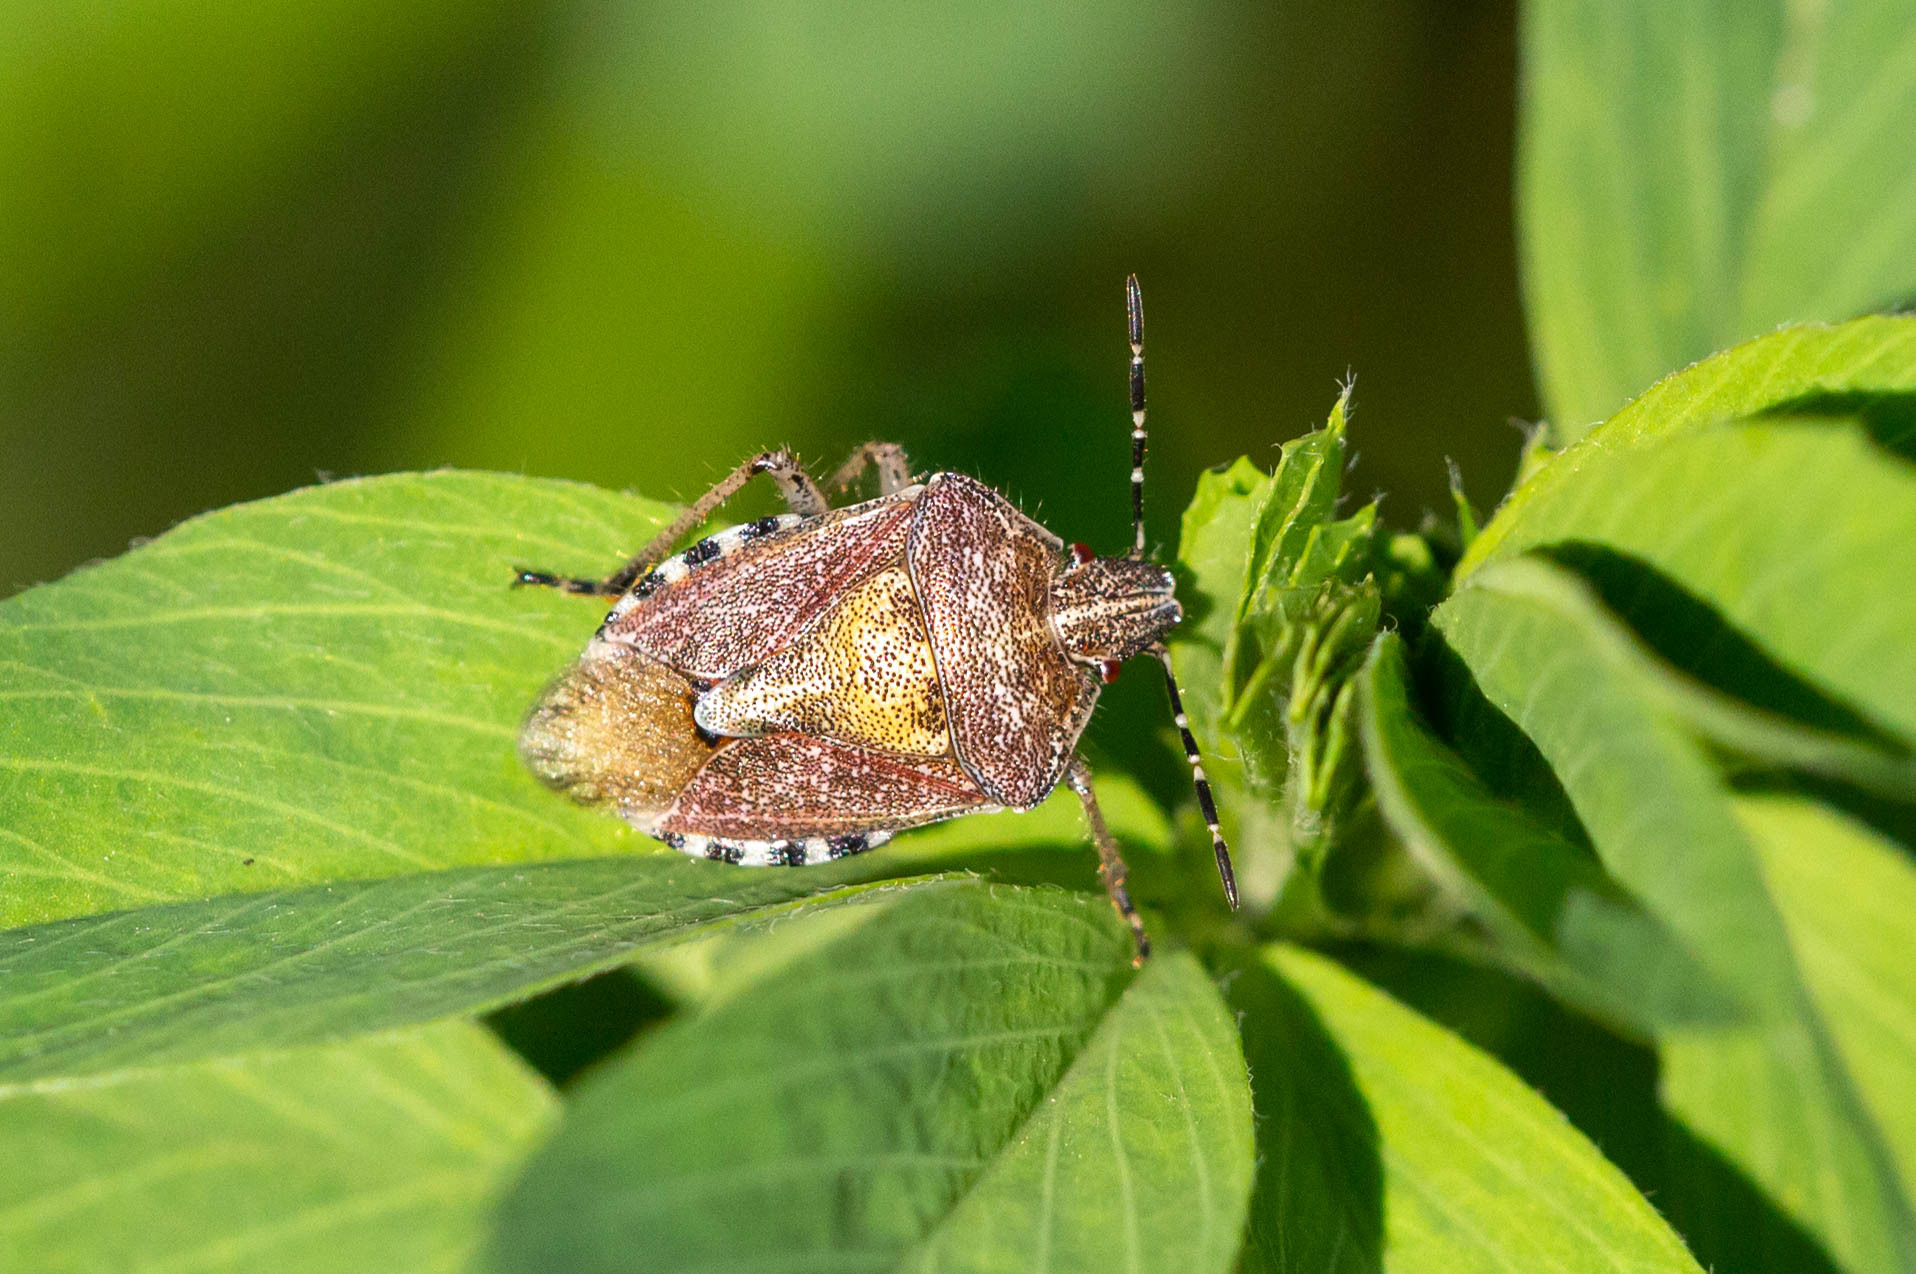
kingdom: Animalia
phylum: Arthropoda
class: Insecta
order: Hemiptera
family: Pentatomidae
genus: Dolycoris
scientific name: Dolycoris baccarum
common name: Sloe bug
